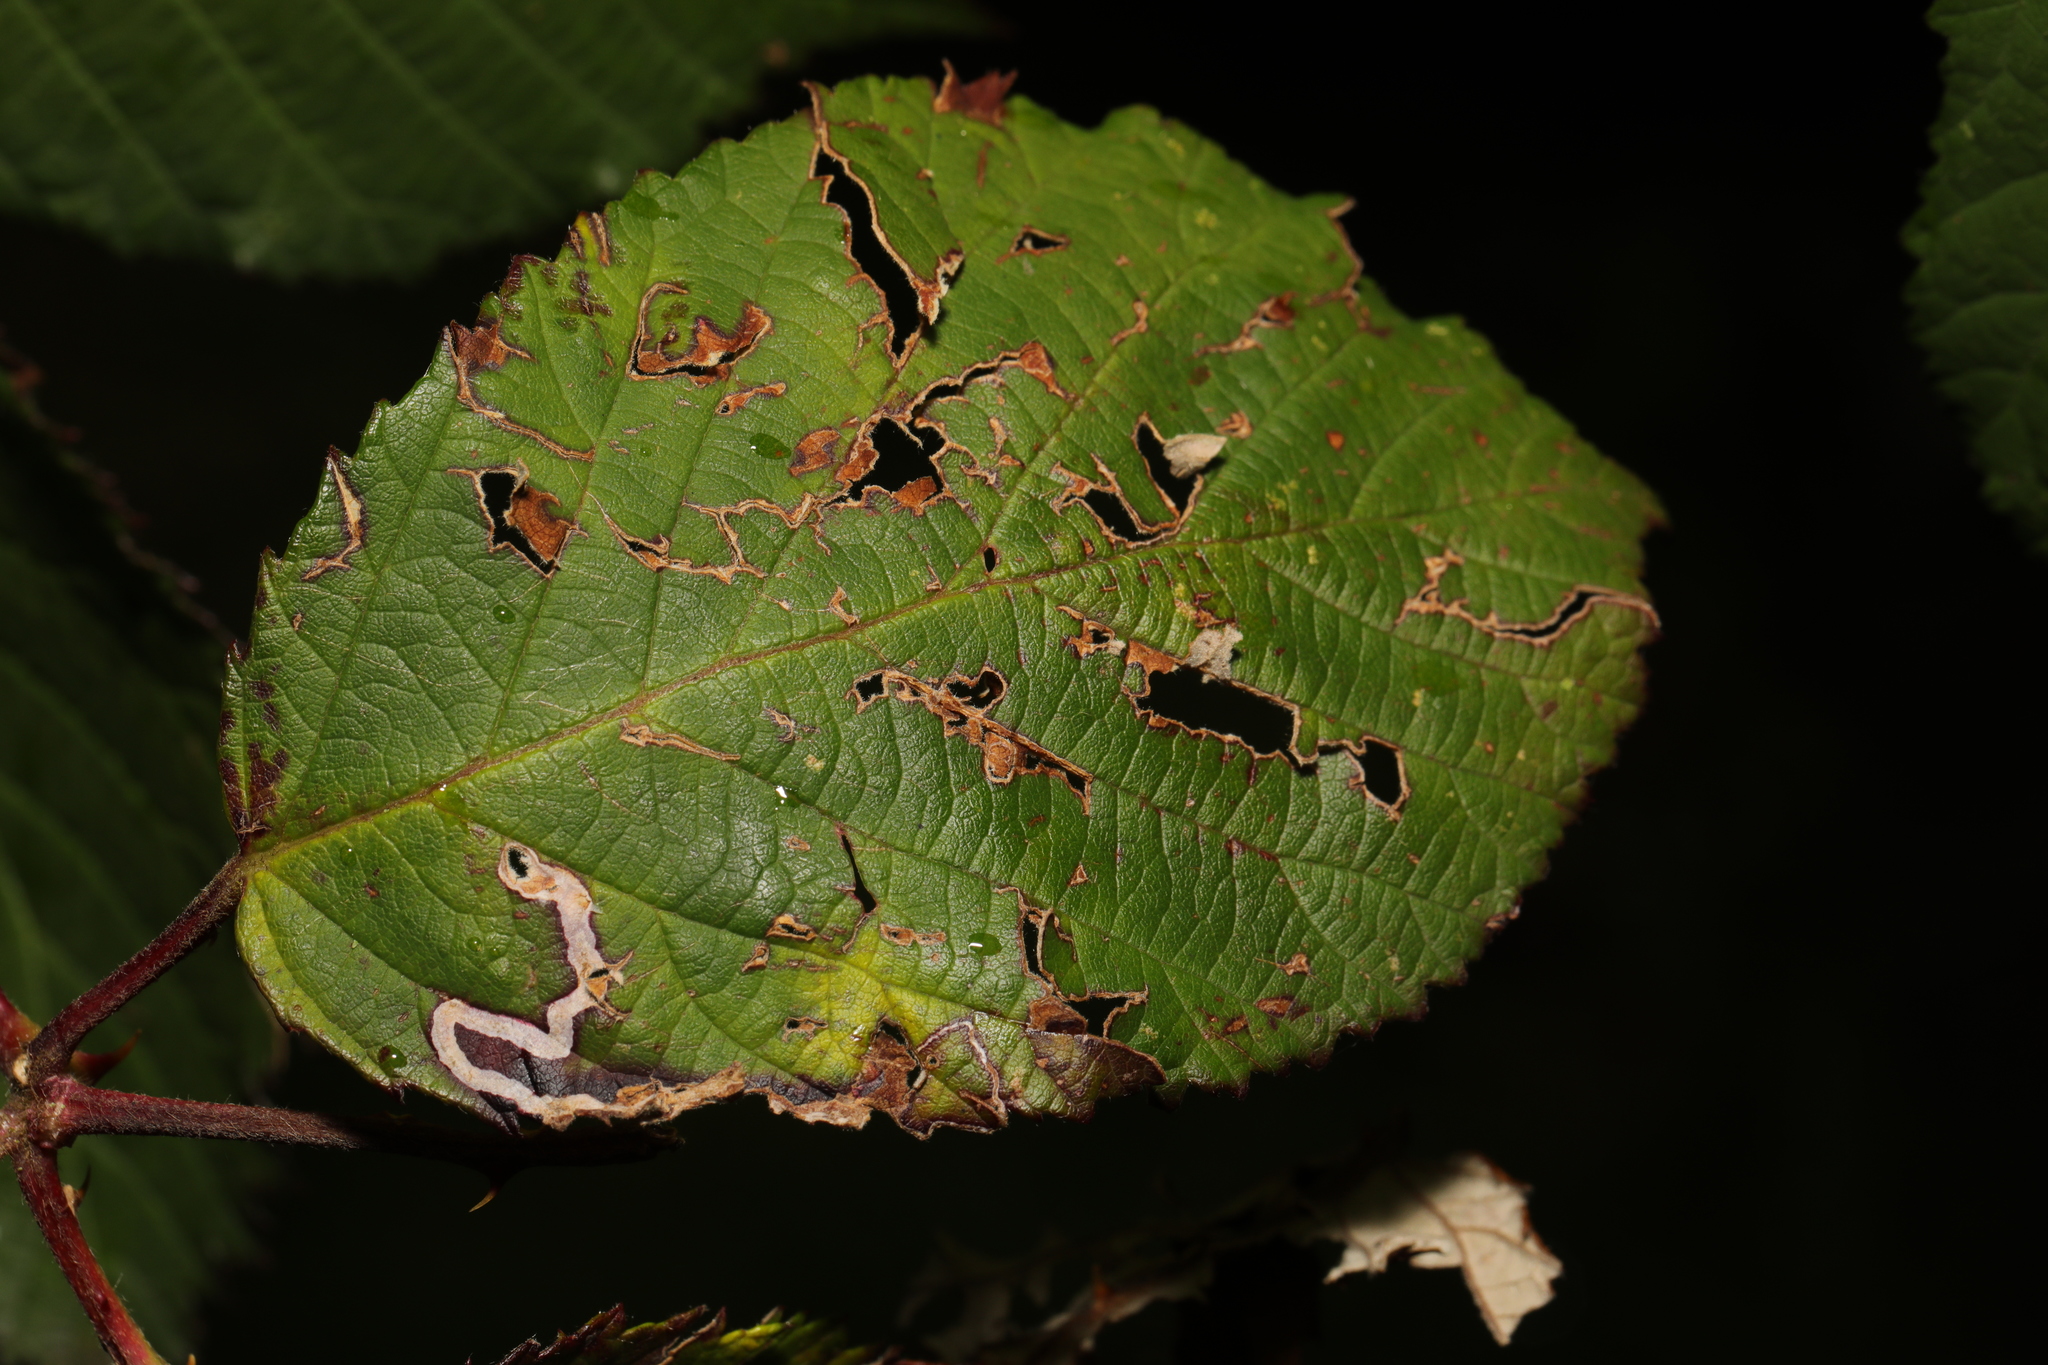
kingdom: Animalia
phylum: Arthropoda
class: Insecta
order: Lepidoptera
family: Nepticulidae
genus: Stigmella
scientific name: Stigmella aurella
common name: Golden pigmy
